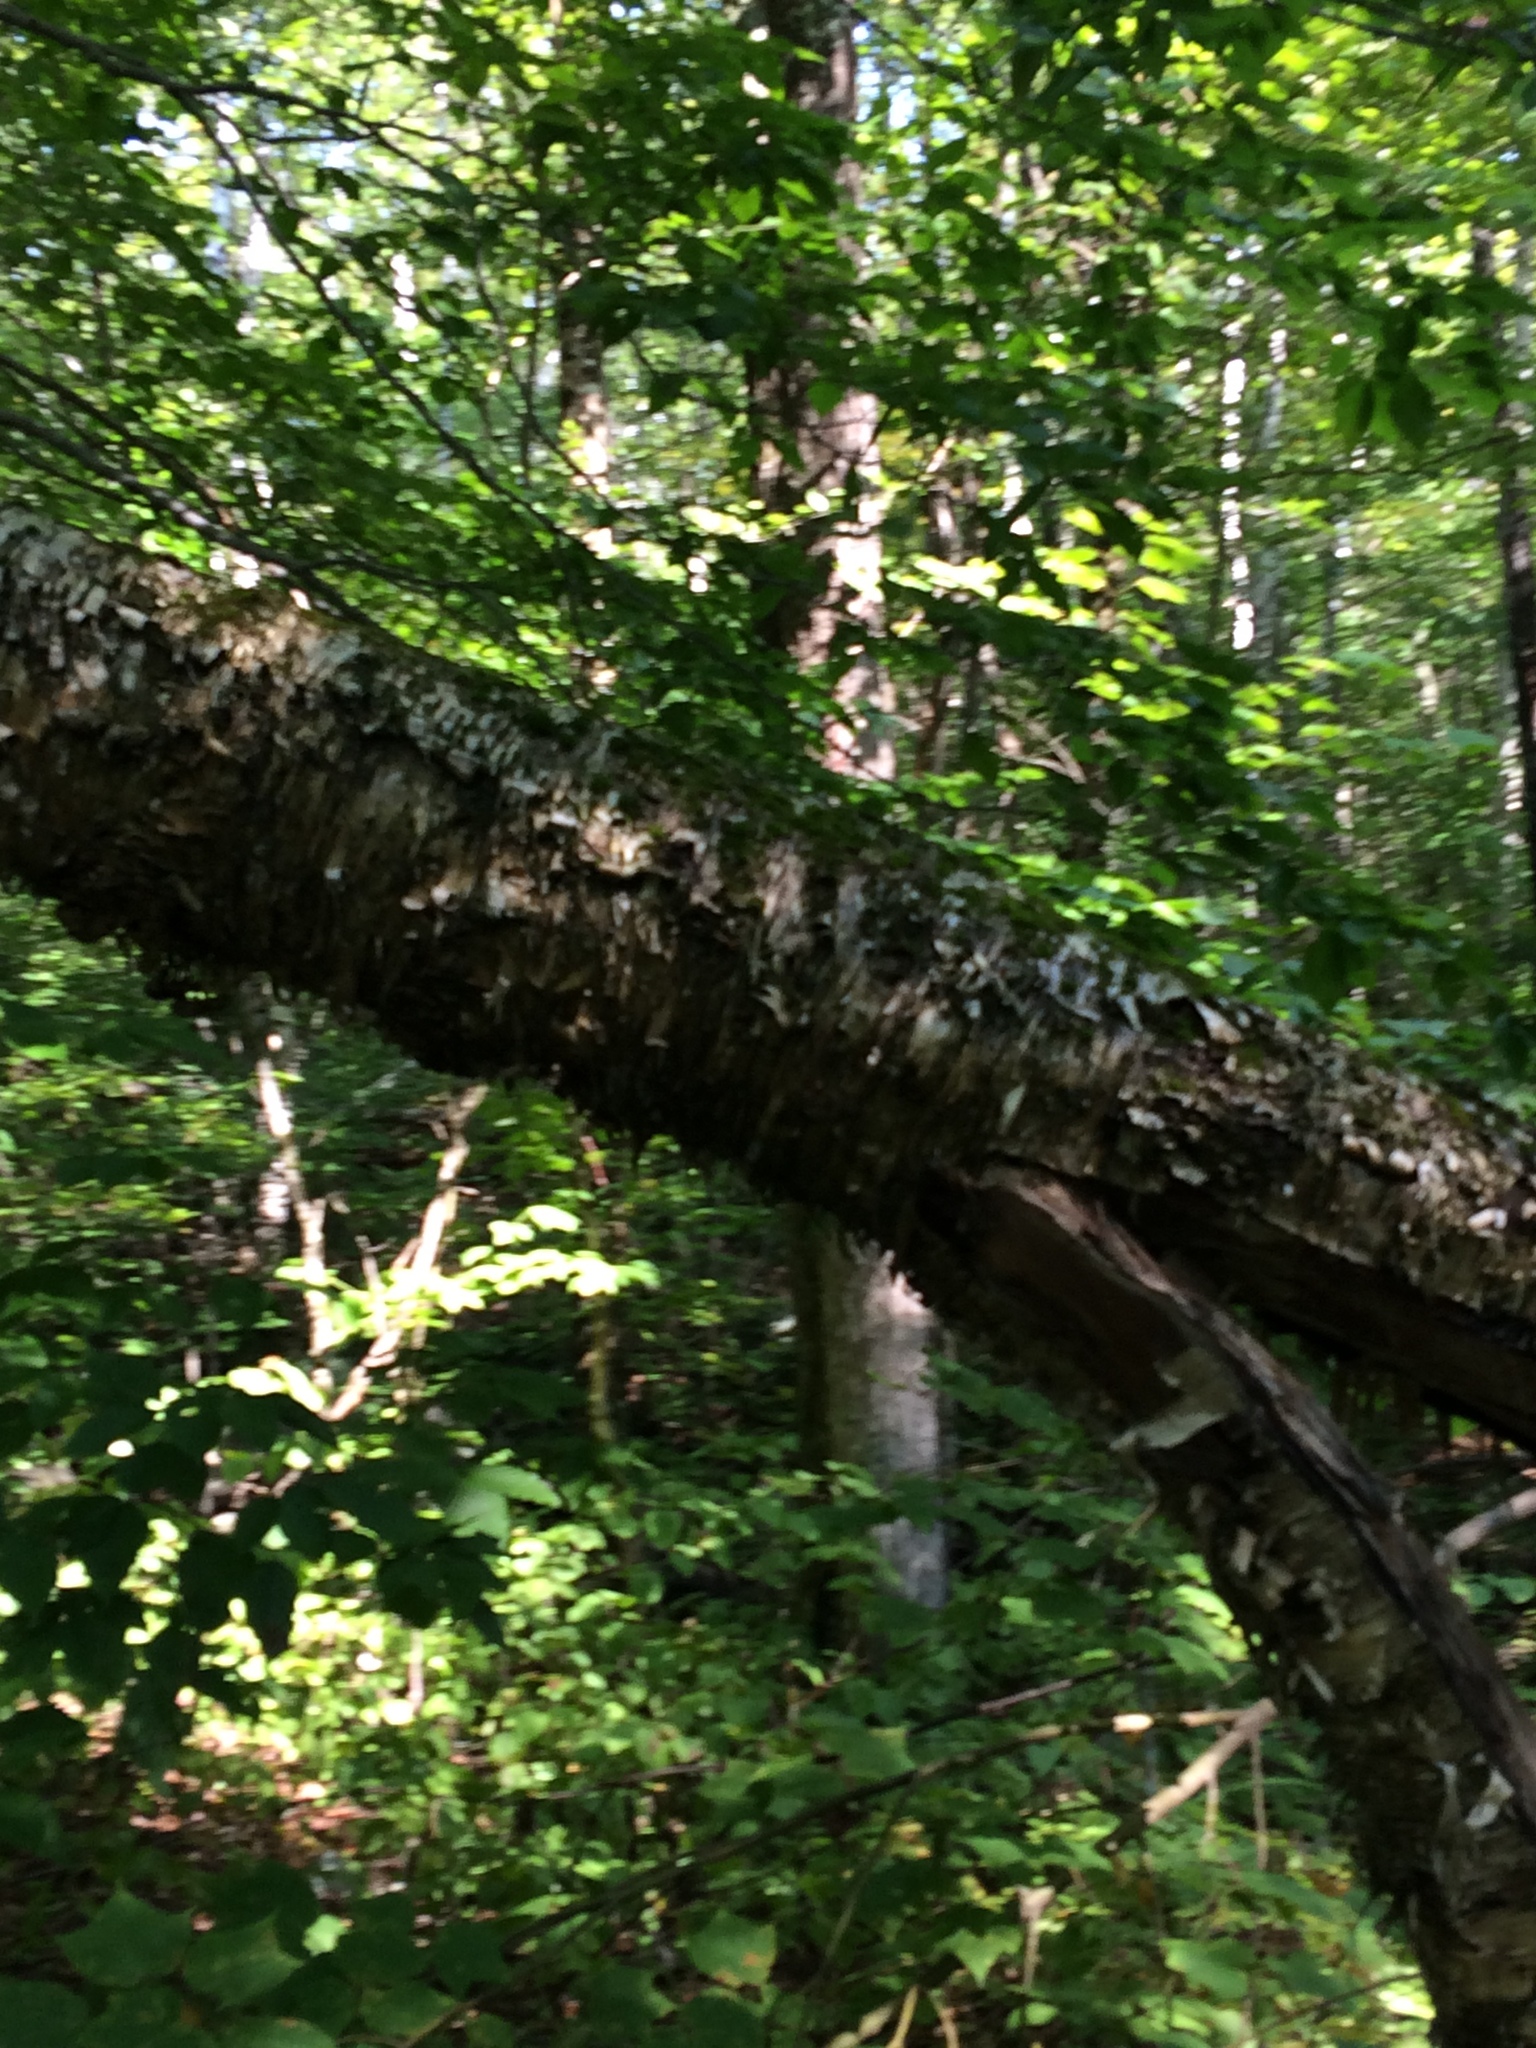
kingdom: Plantae
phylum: Tracheophyta
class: Magnoliopsida
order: Fagales
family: Betulaceae
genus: Betula
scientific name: Betula alleghaniensis
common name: Yellow birch
